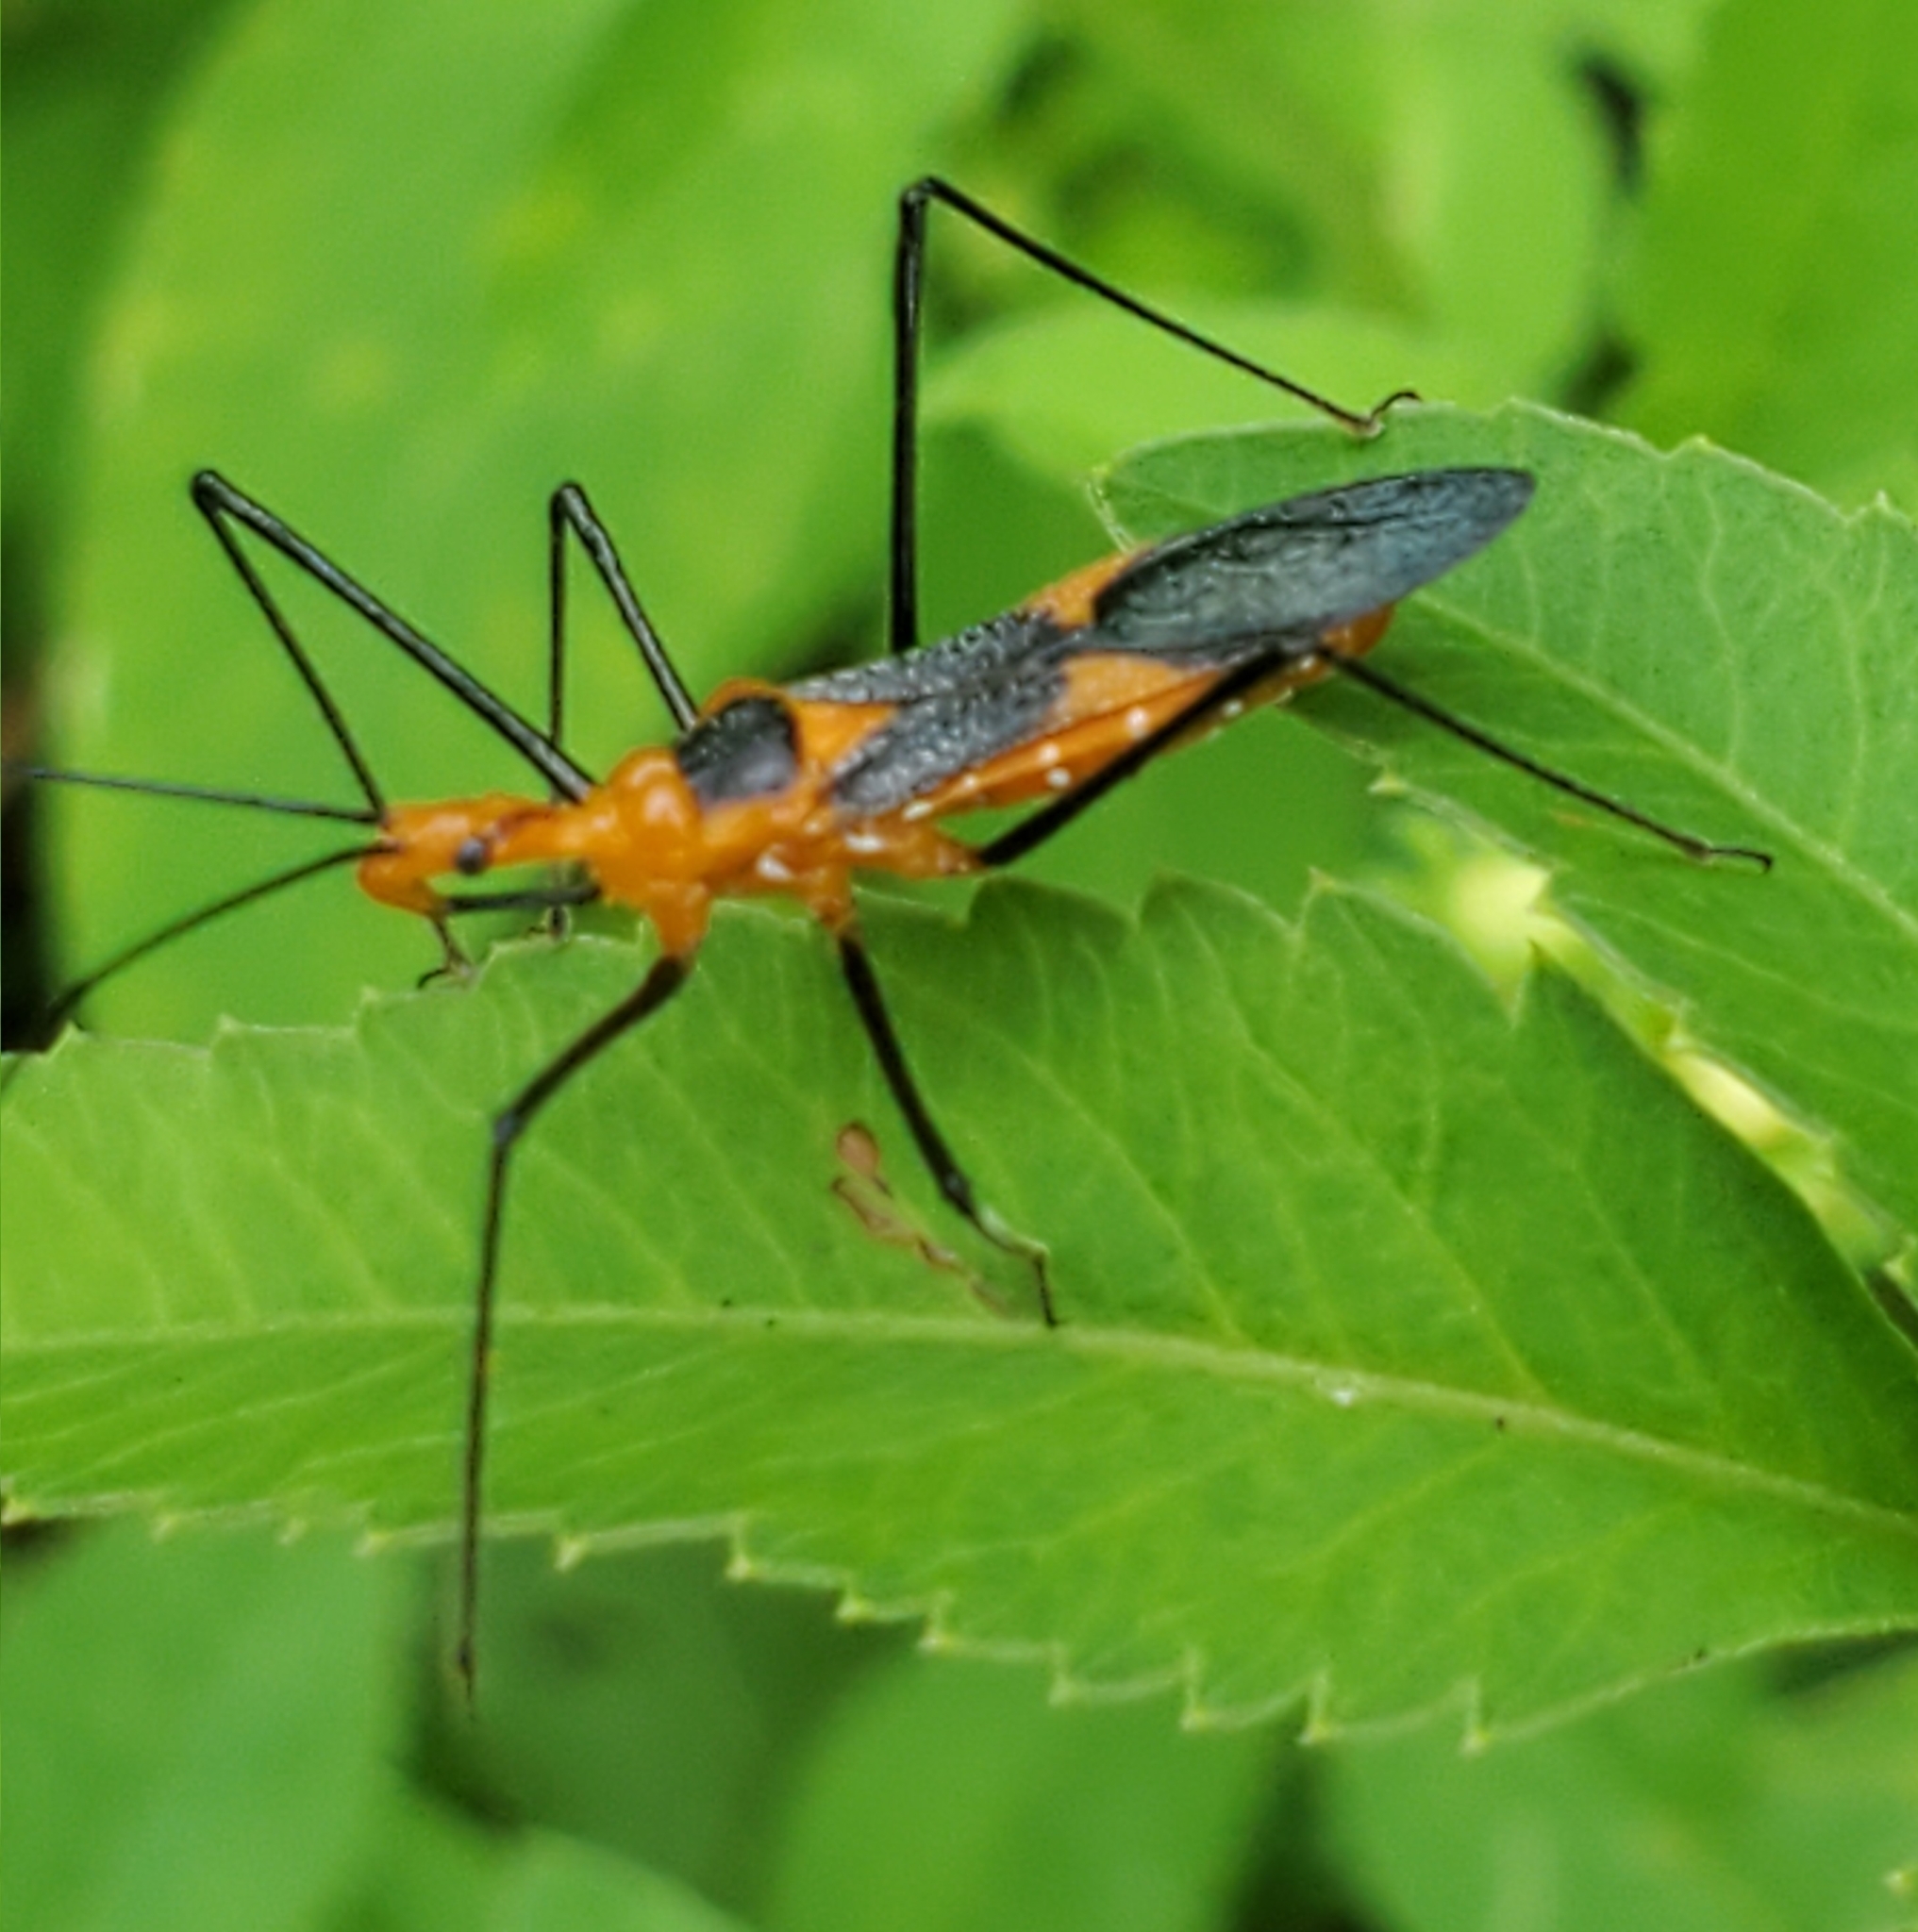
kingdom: Animalia
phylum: Arthropoda
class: Insecta
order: Hemiptera
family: Reduviidae
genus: Zelus
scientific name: Zelus longipes
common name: Milkweed assassin bug
